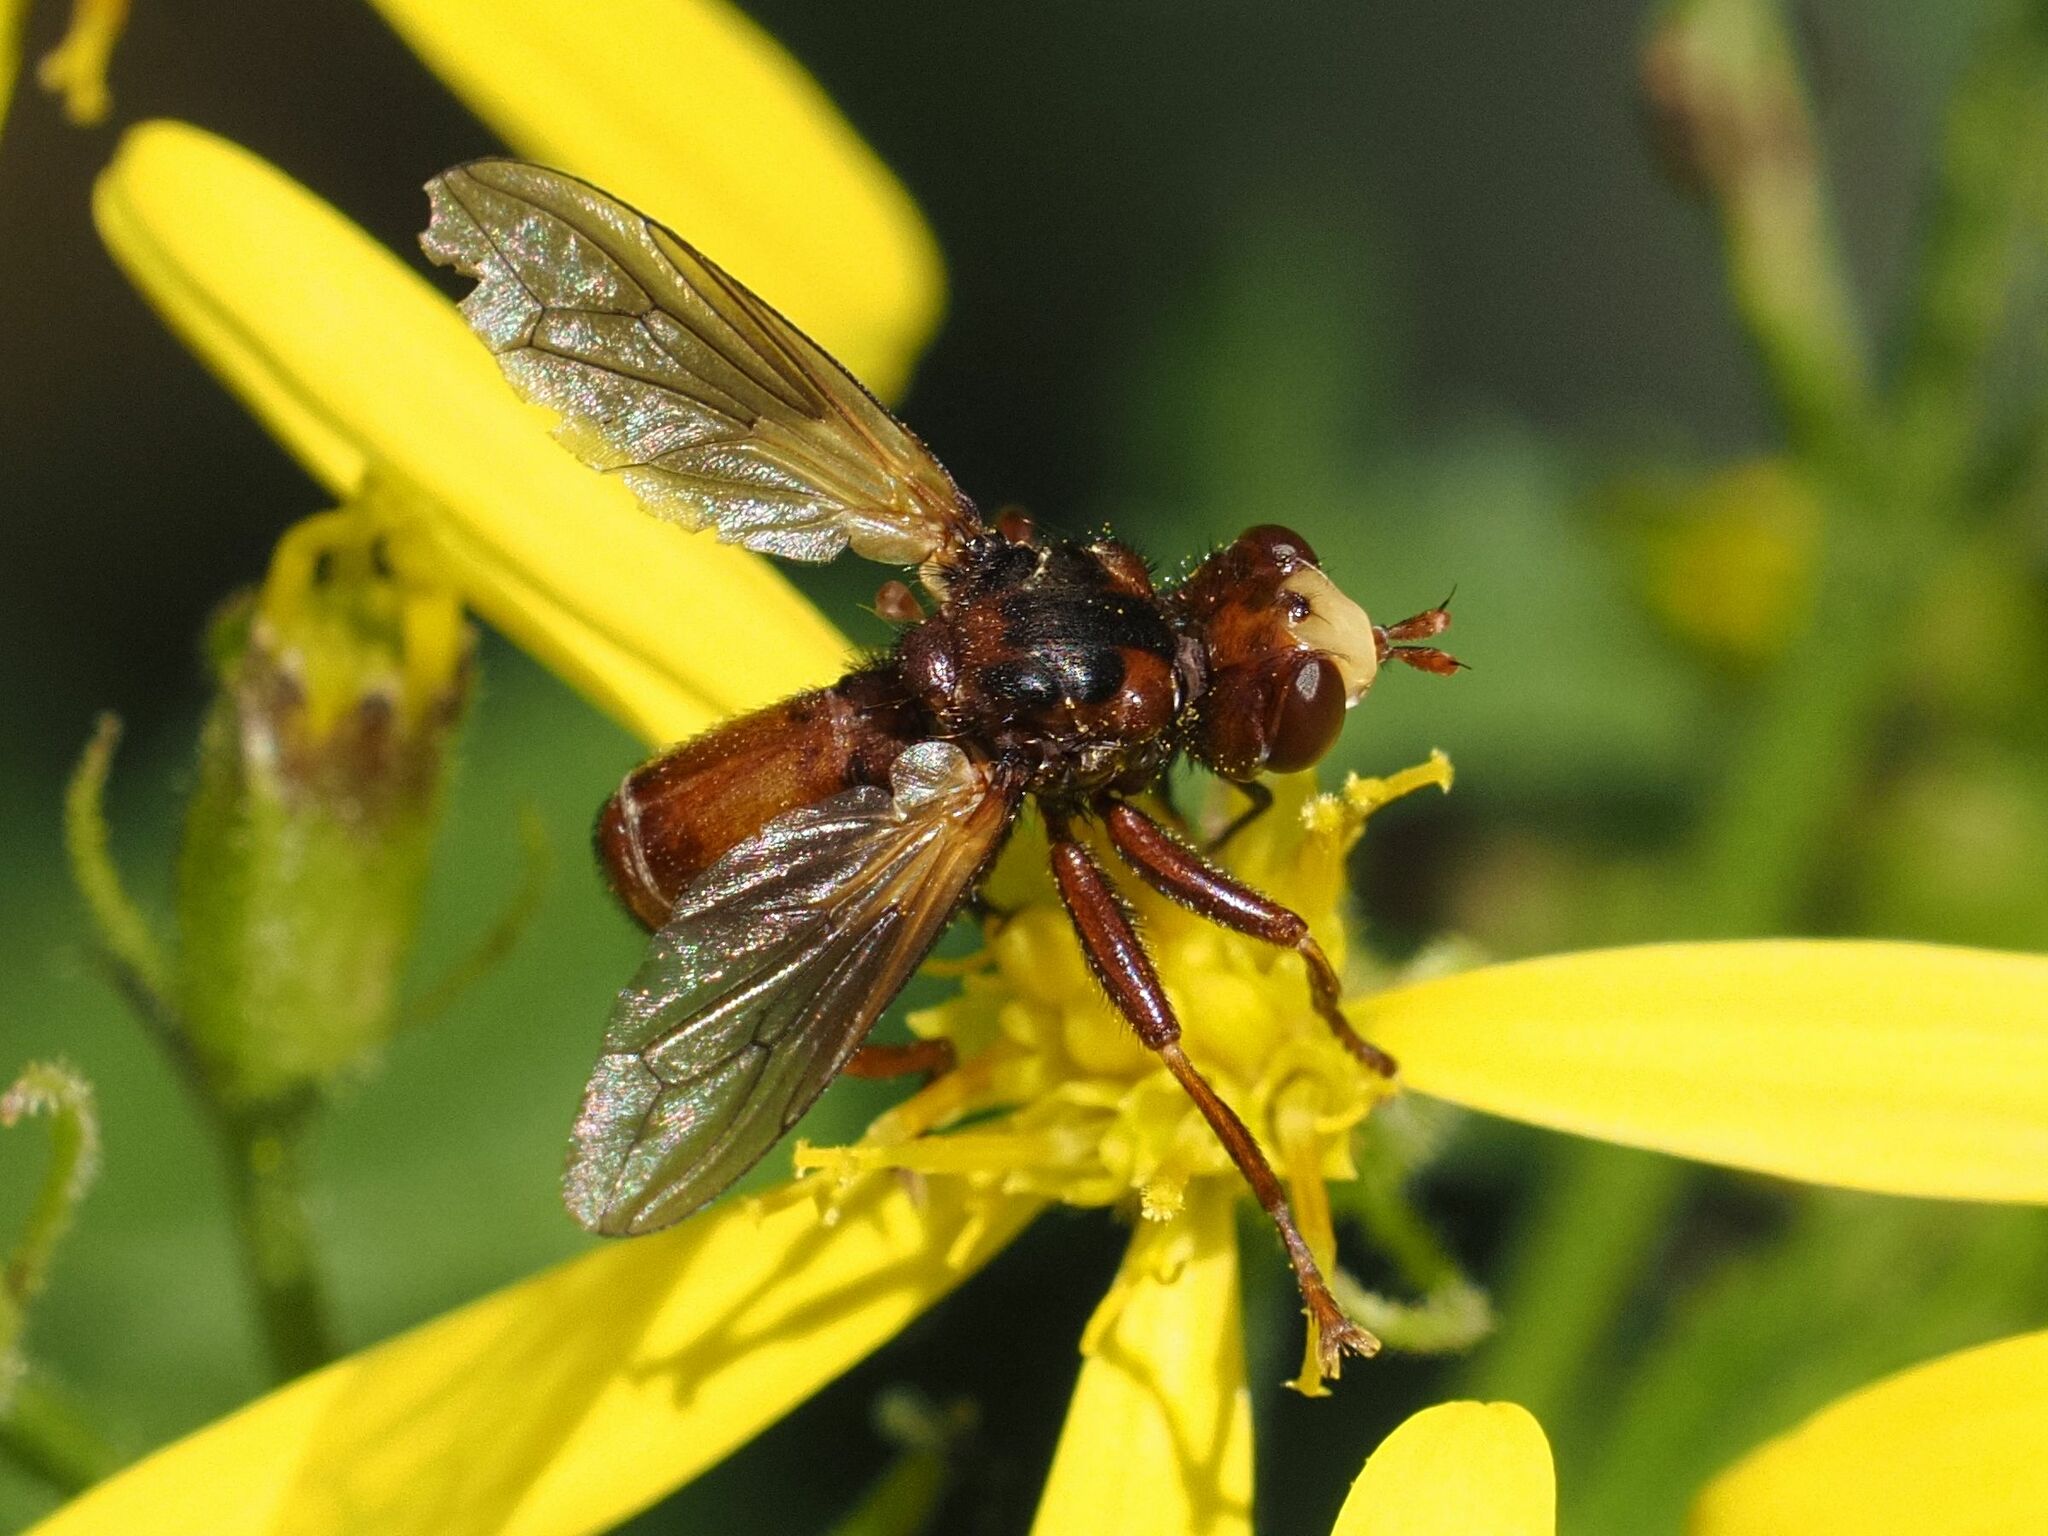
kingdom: Animalia
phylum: Arthropoda
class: Insecta
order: Diptera
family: Conopidae
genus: Sicus
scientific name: Sicus ferrugineus
